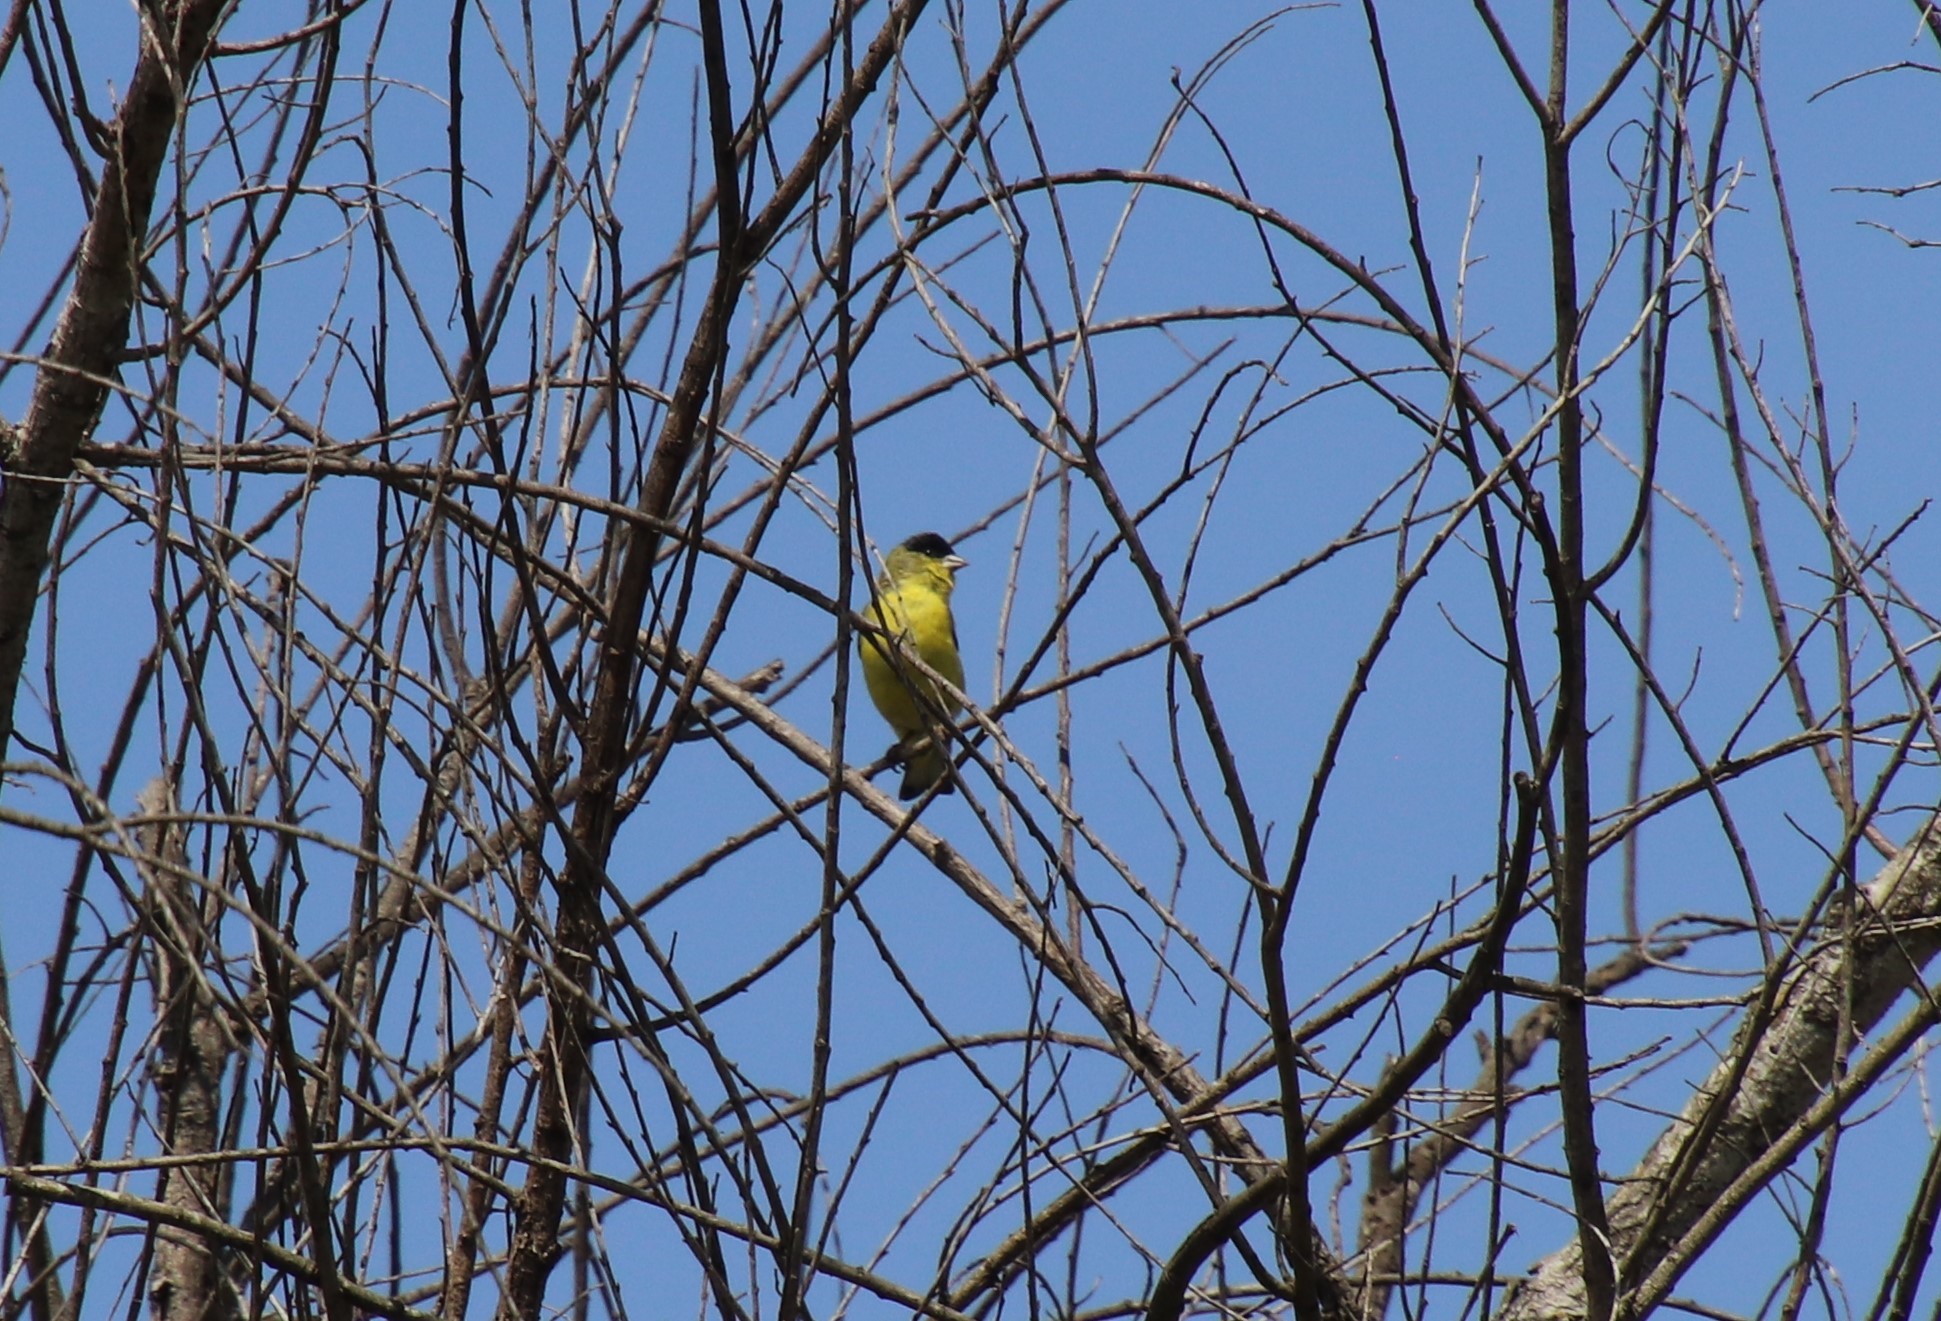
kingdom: Animalia
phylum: Chordata
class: Aves
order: Passeriformes
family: Fringillidae
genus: Spinus
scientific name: Spinus psaltria
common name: Lesser goldfinch
